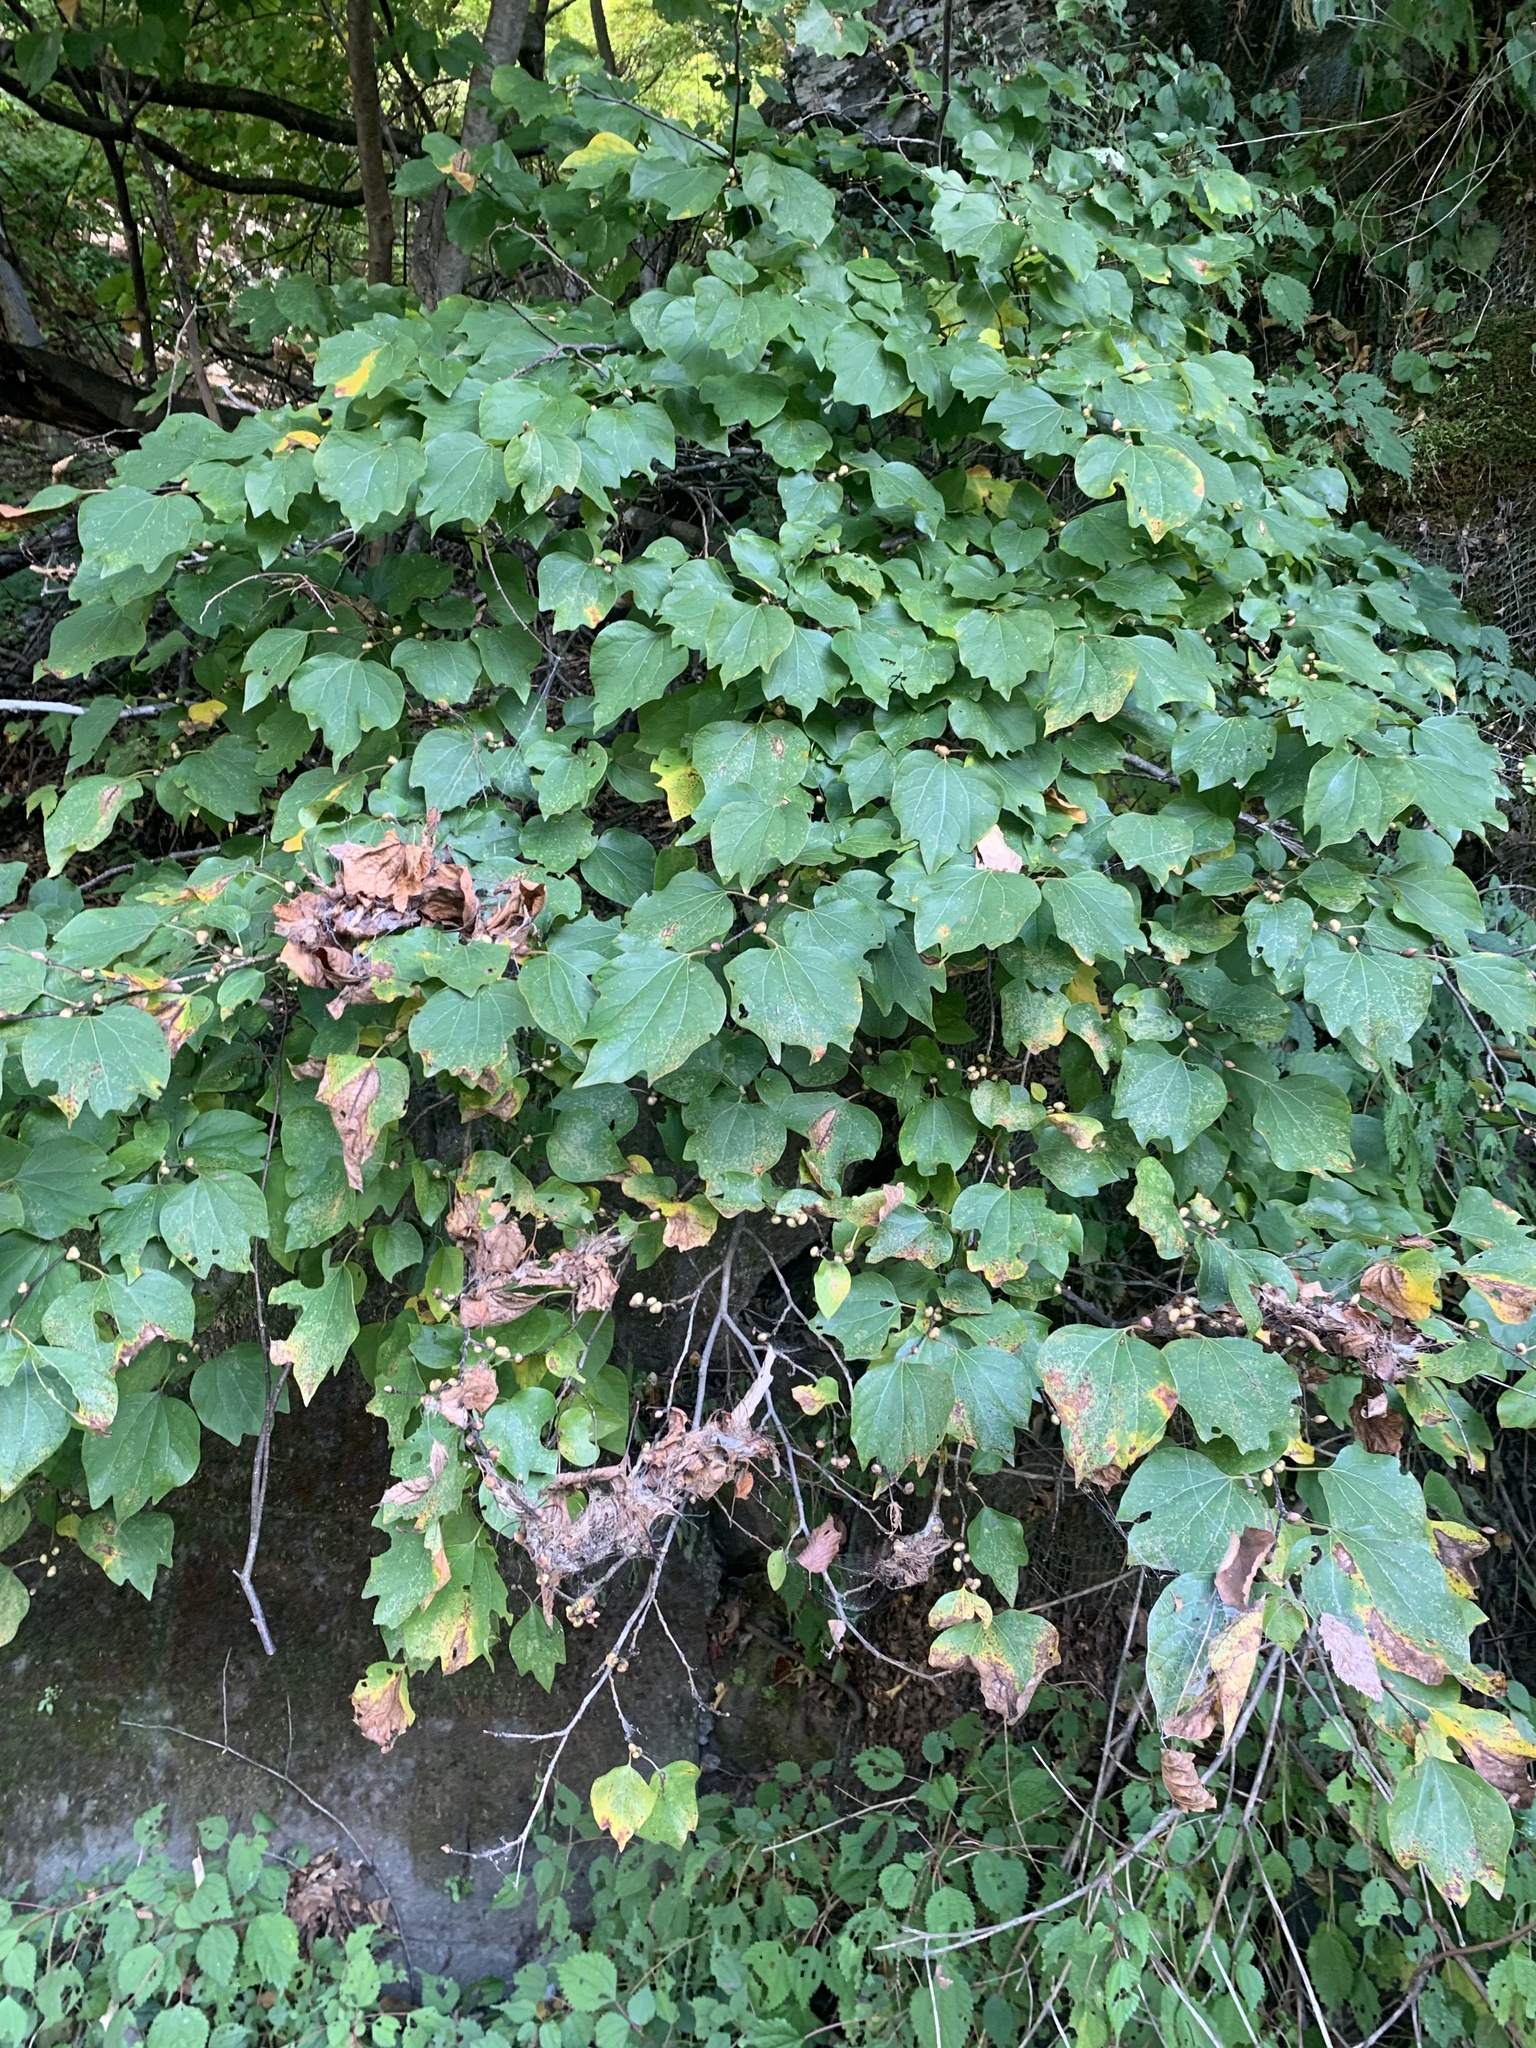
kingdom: Plantae
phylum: Tracheophyta
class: Magnoliopsida
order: Laurales
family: Lauraceae
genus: Lindera
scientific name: Lindera obtusiloba
